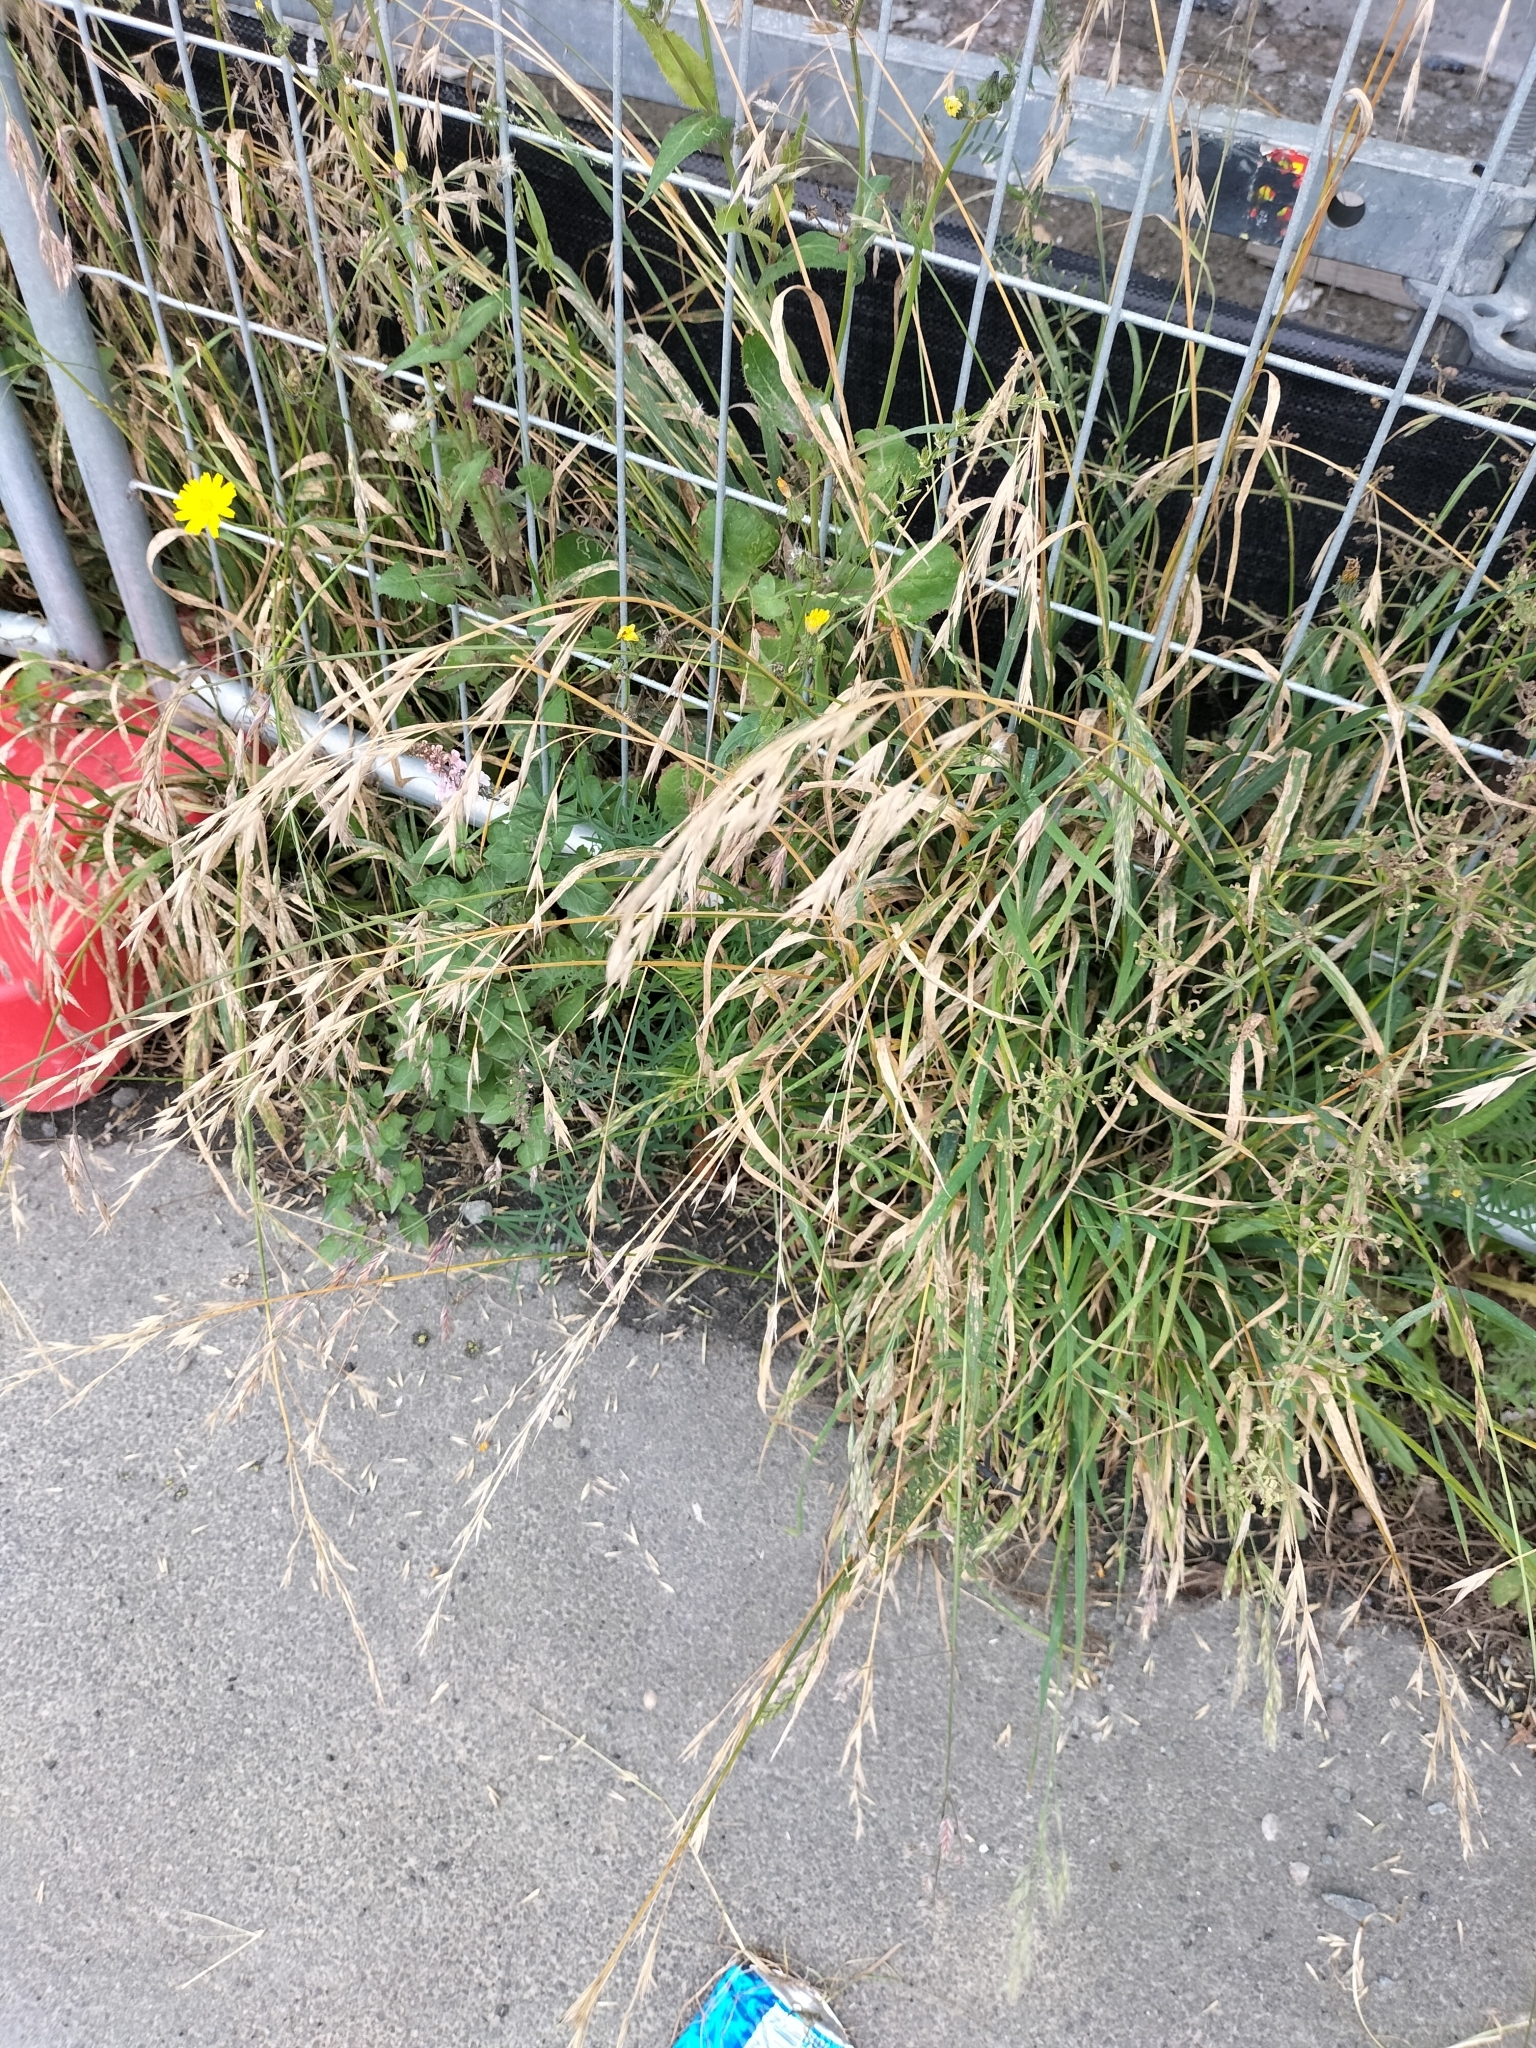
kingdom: Plantae
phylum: Tracheophyta
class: Liliopsida
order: Poales
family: Poaceae
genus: Bromus
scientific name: Bromus catharticus
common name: Rescuegrass
